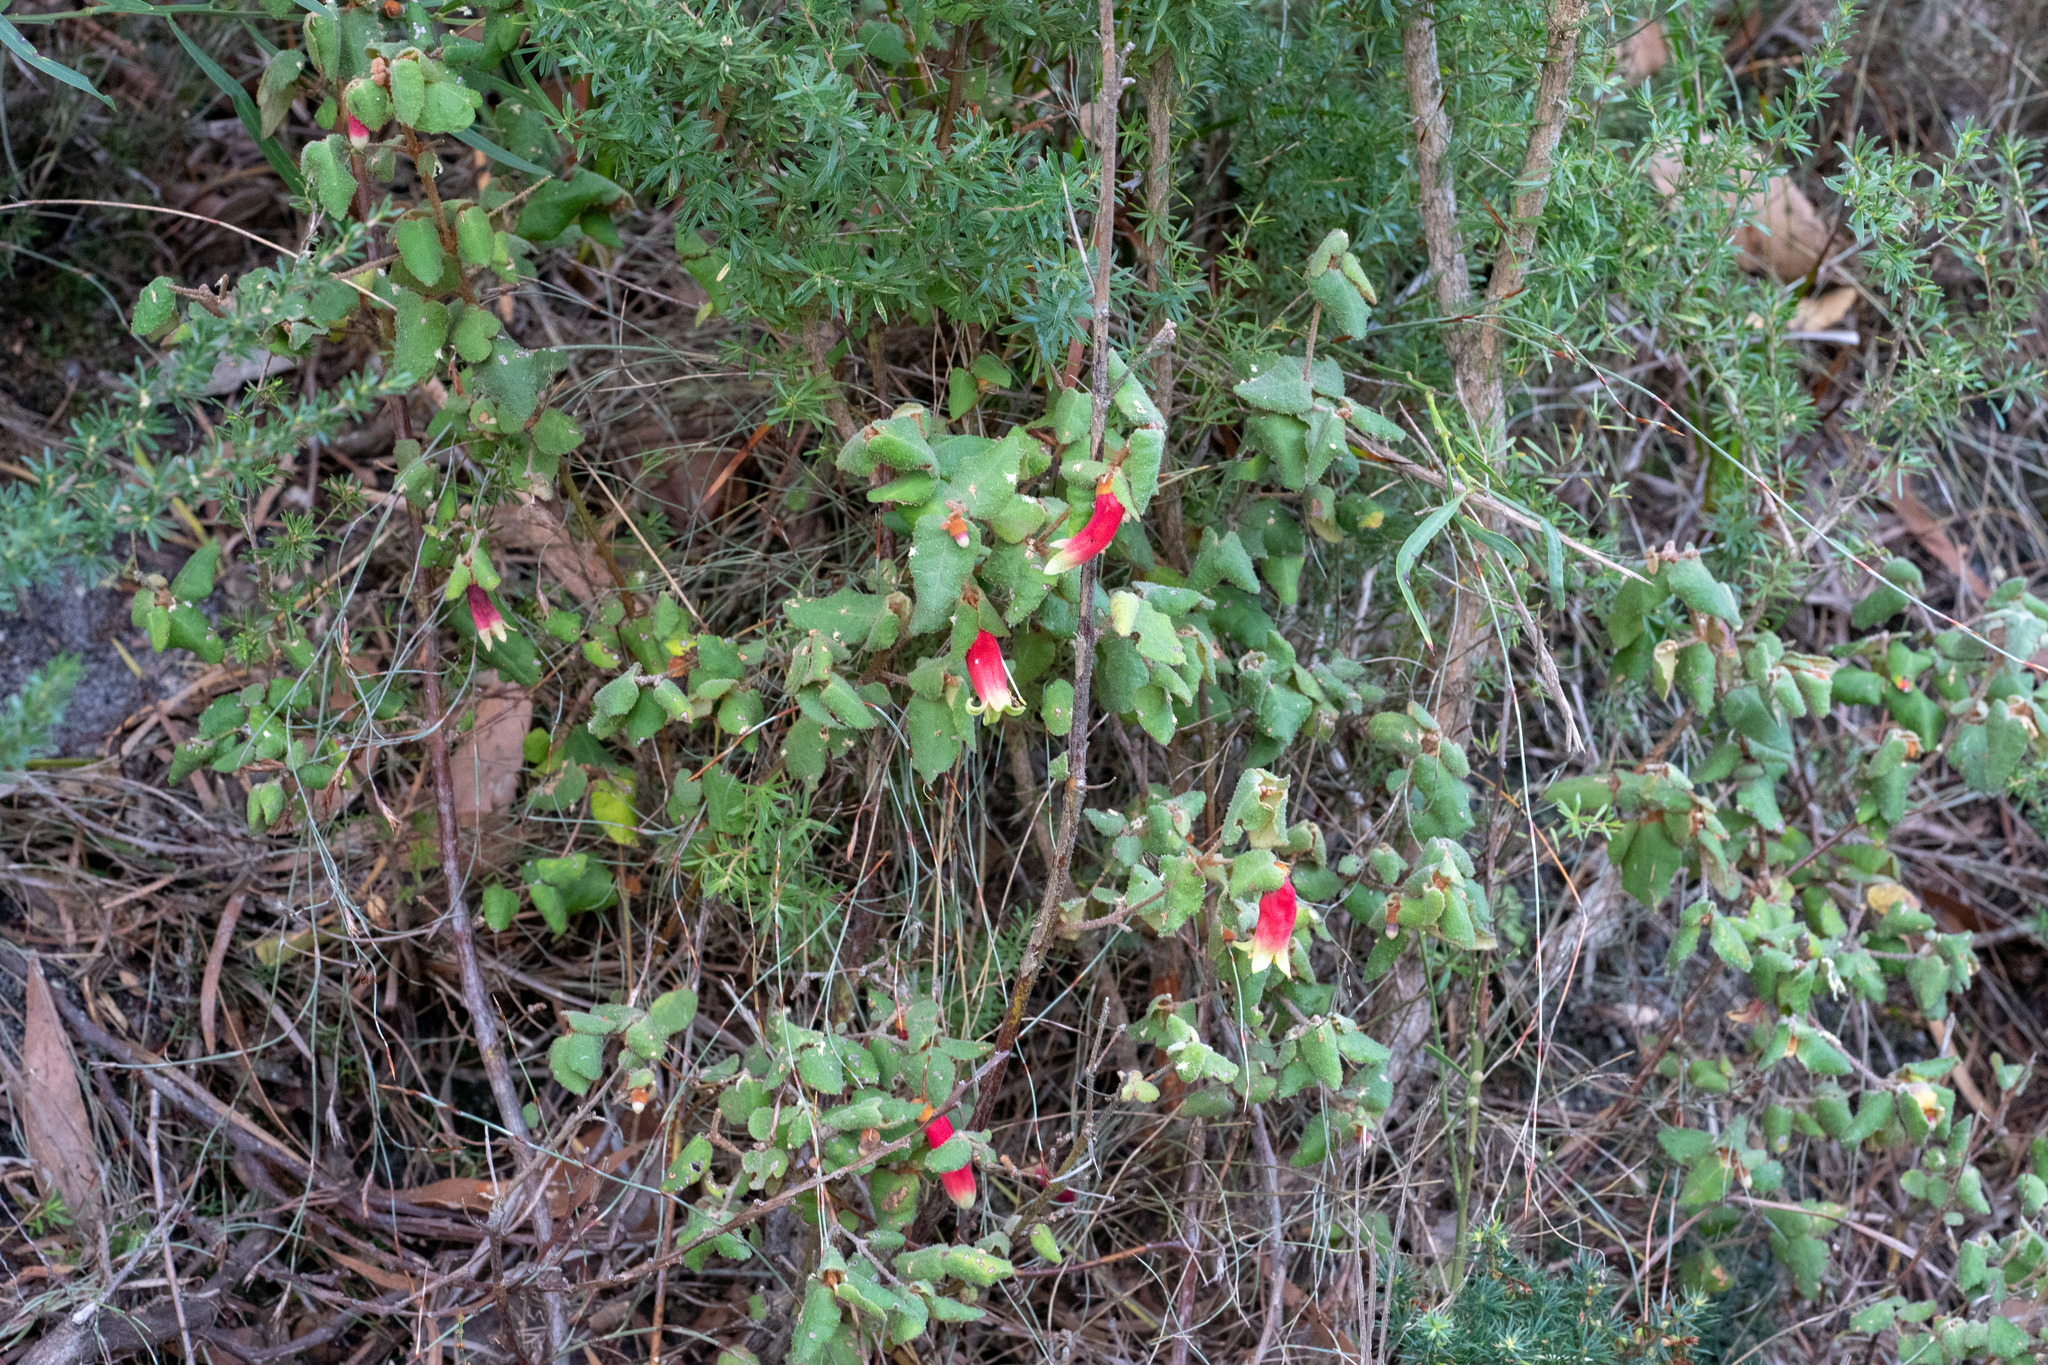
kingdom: Plantae
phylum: Tracheophyta
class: Magnoliopsida
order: Sapindales
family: Rutaceae
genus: Correa
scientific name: Correa reflexa
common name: Common correa
